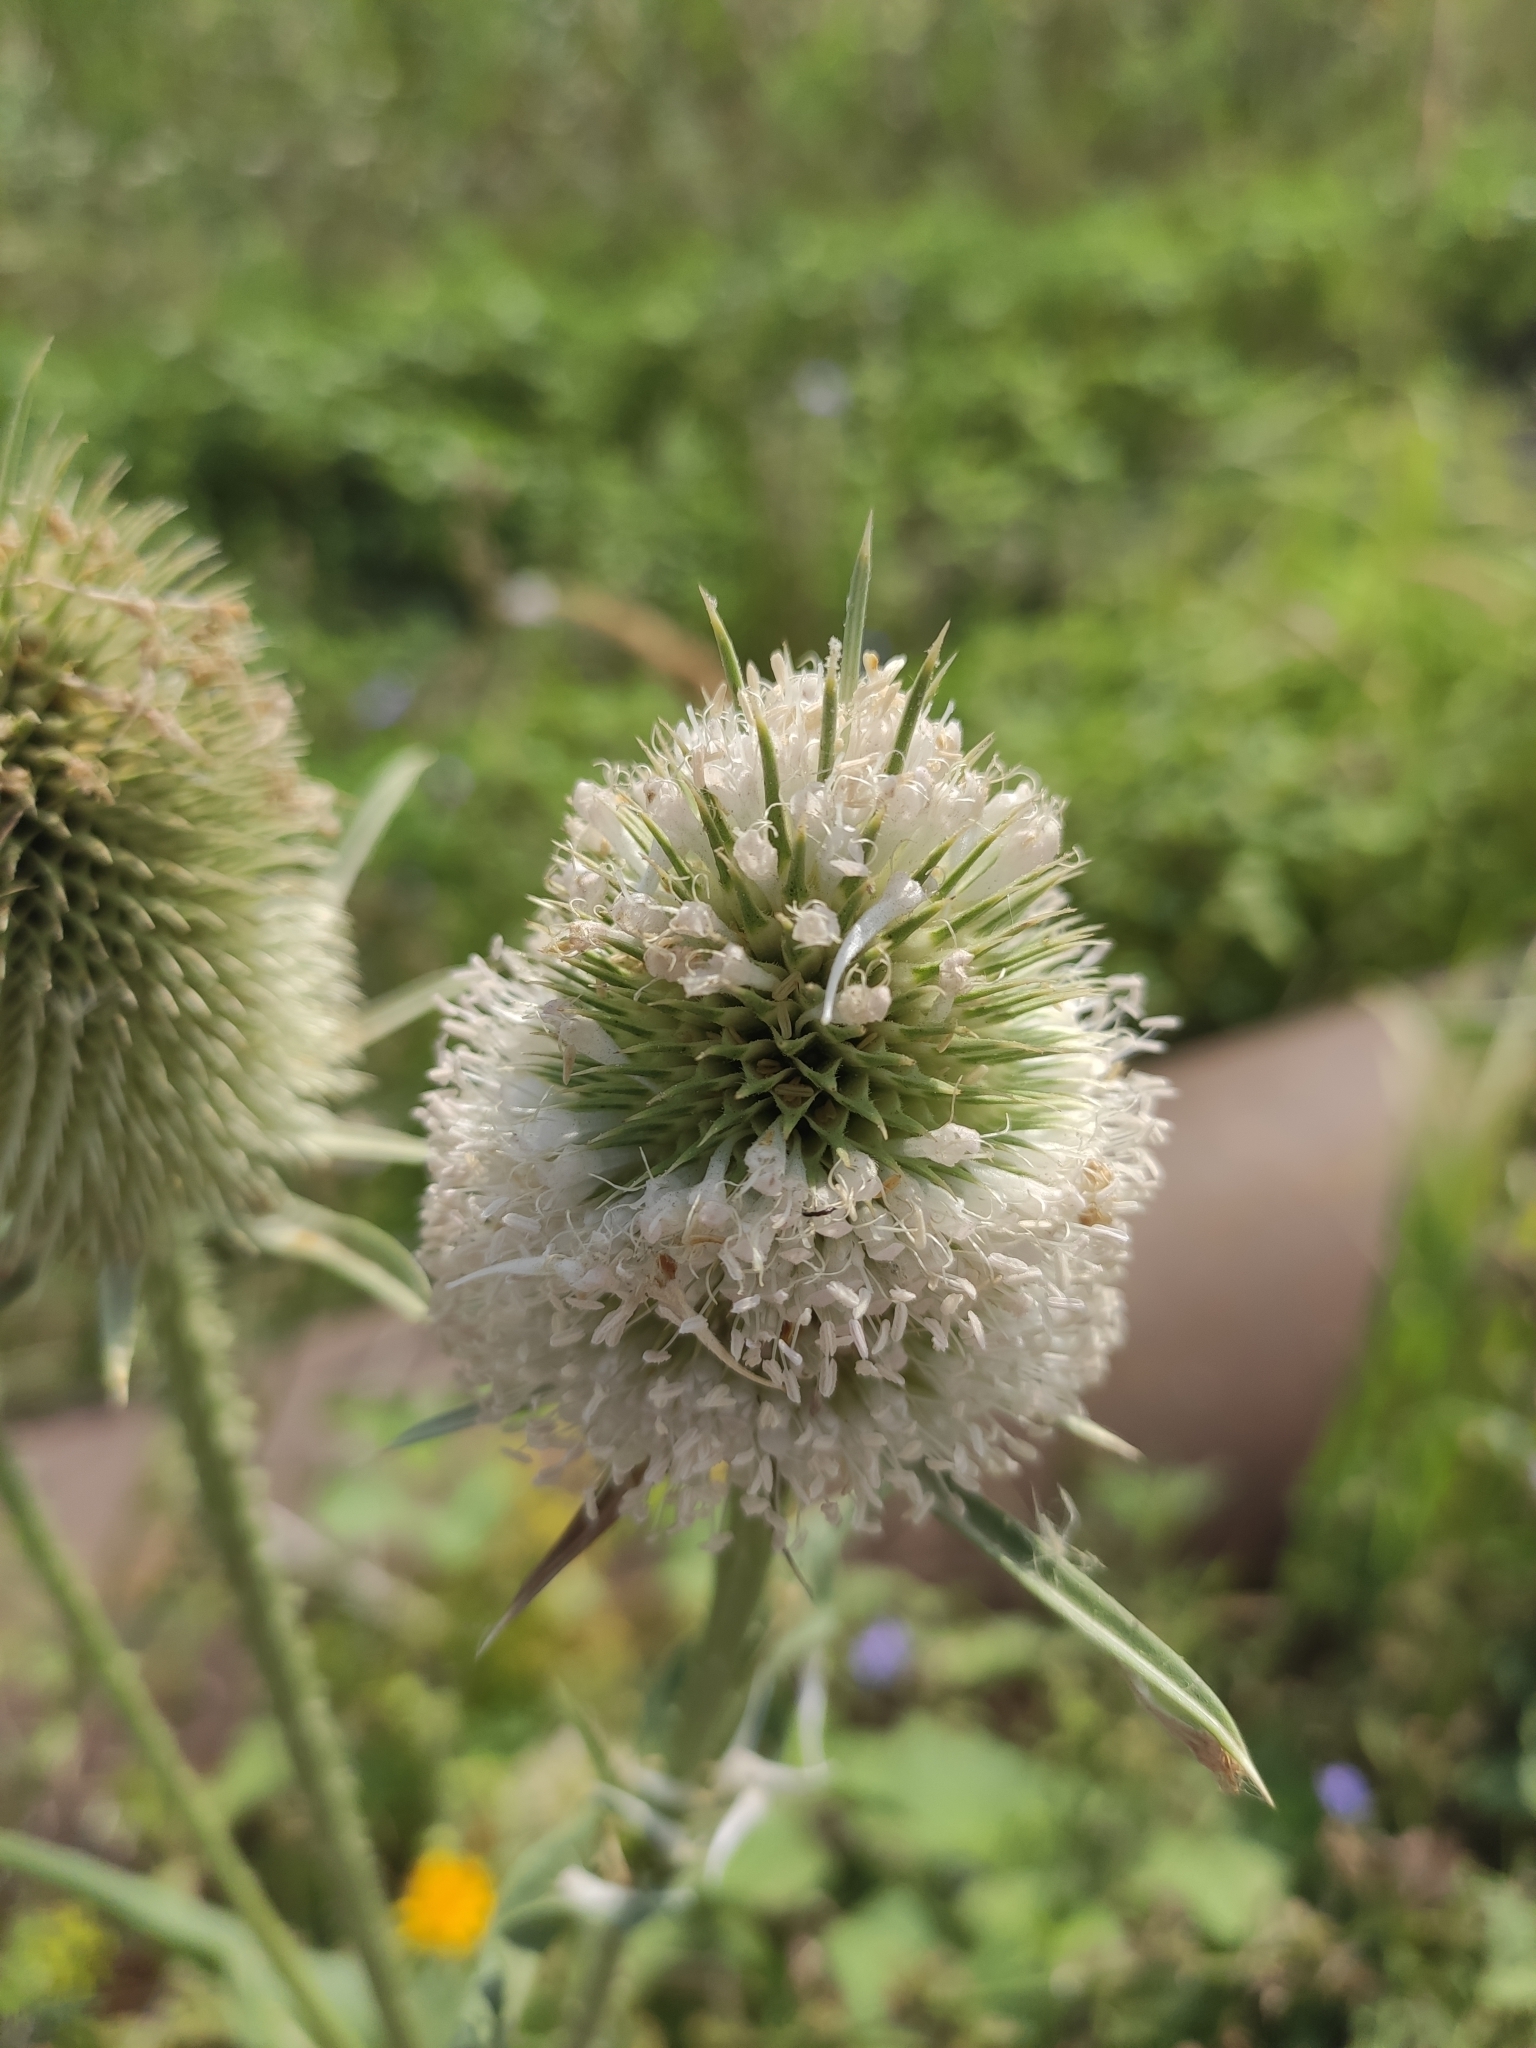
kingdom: Plantae
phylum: Tracheophyta
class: Magnoliopsida
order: Dipsacales
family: Caprifoliaceae
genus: Dipsacus
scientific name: Dipsacus laciniatus
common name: Cut-leaved teasel
